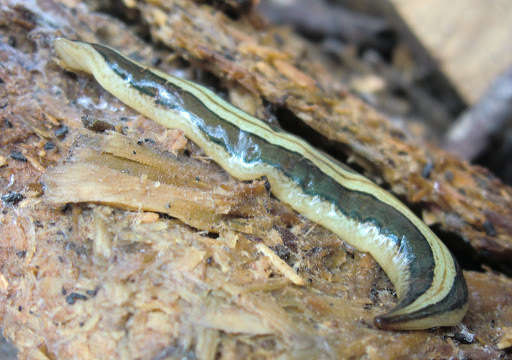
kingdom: Animalia
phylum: Platyhelminthes
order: Tricladida
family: Geoplanidae
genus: Lenkunya
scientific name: Lenkunya adae
